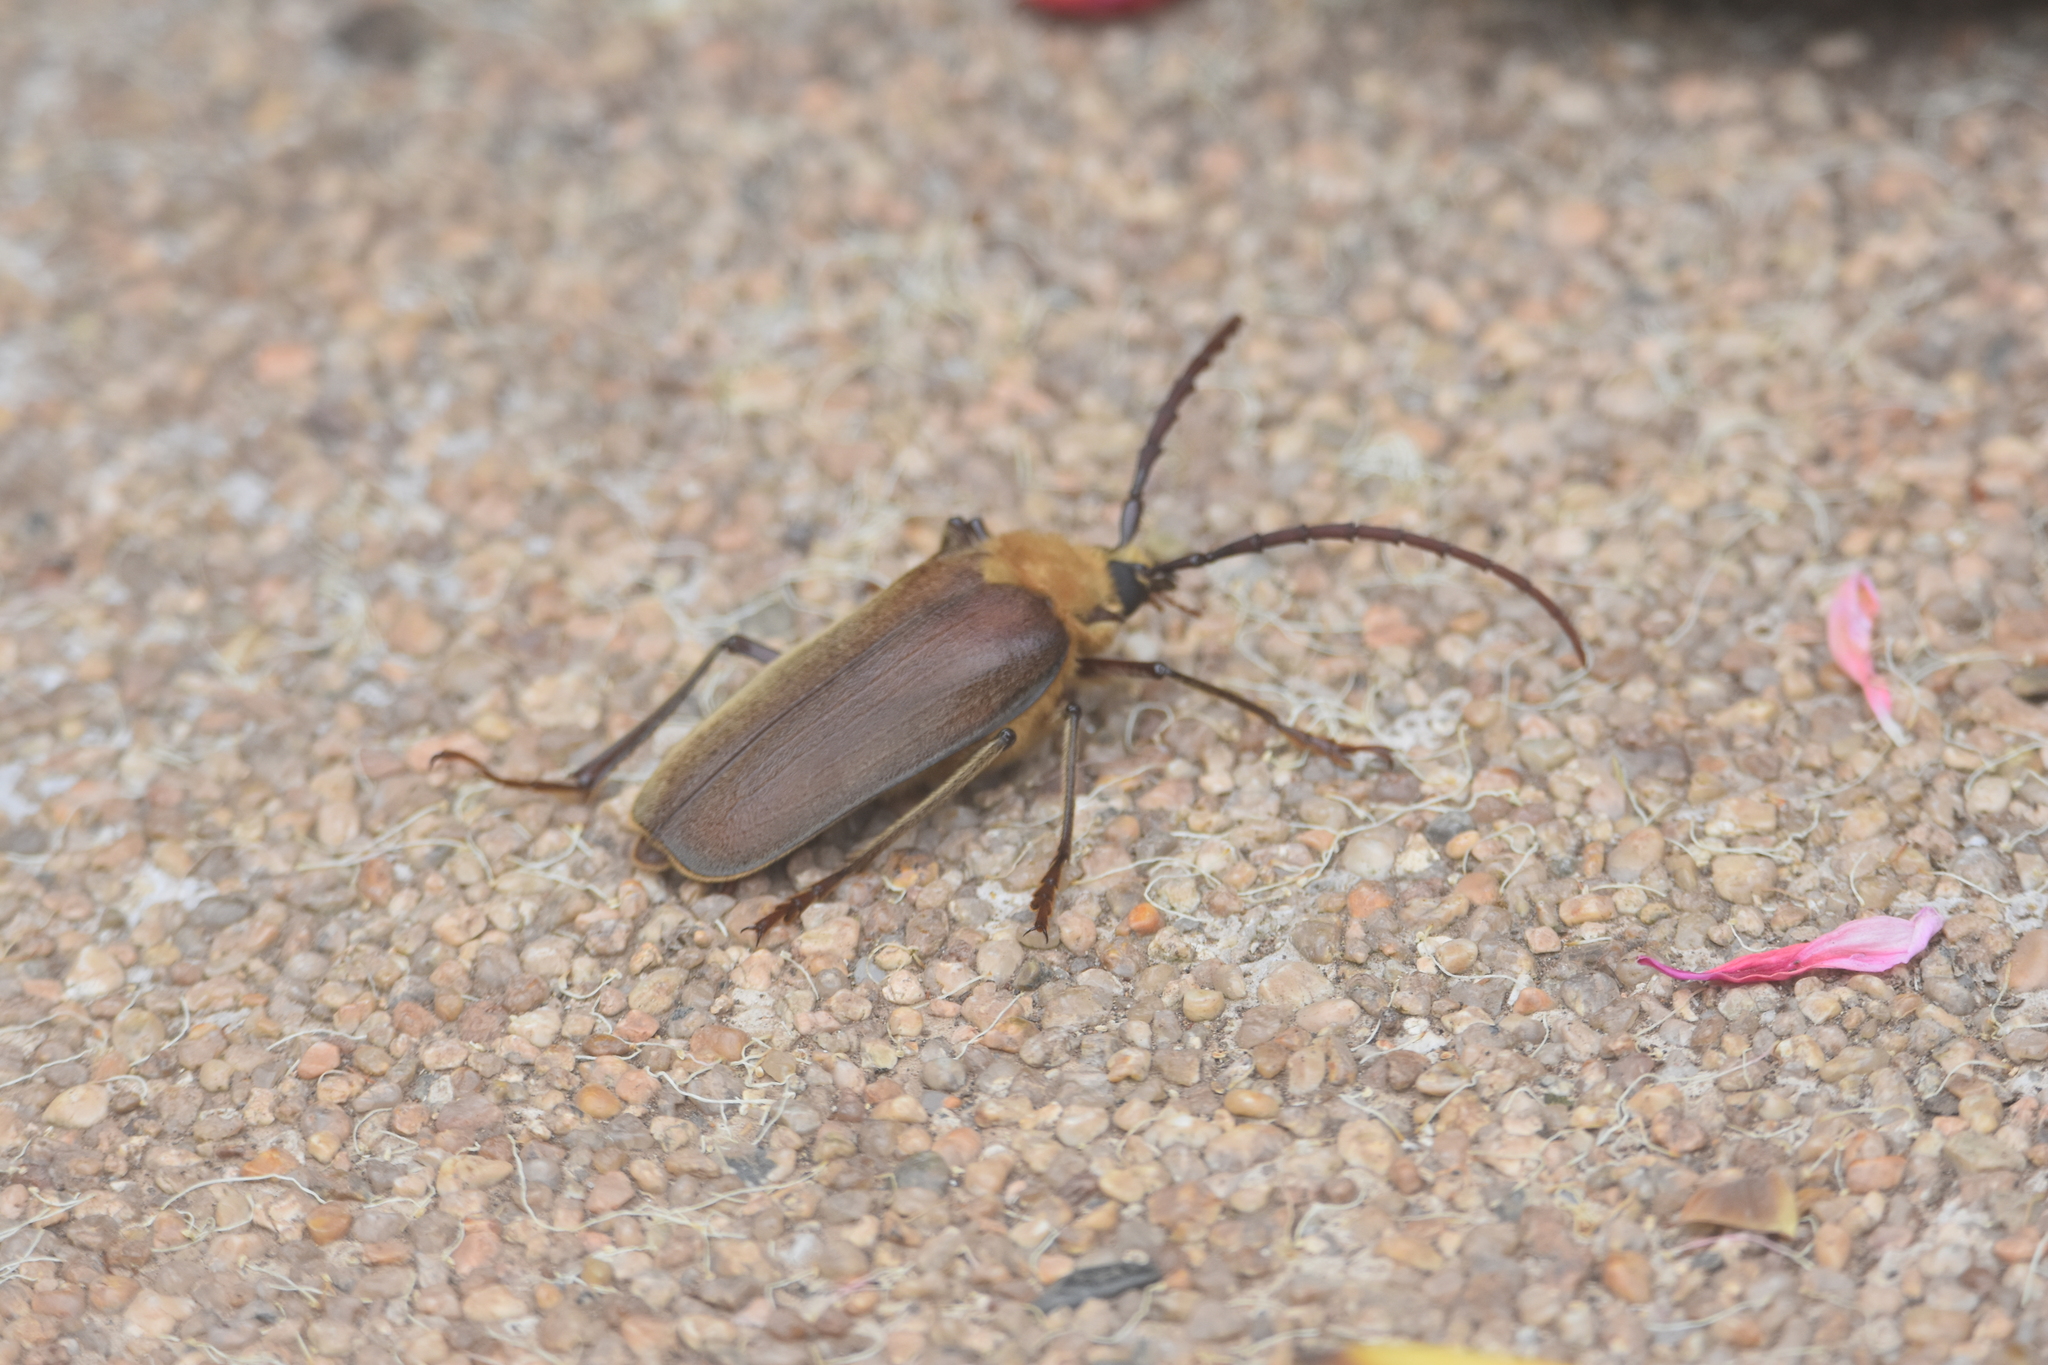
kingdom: Animalia
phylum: Arthropoda
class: Insecta
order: Coleoptera
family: Cerambycidae
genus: Acanthinodera
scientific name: Acanthinodera cumingii
